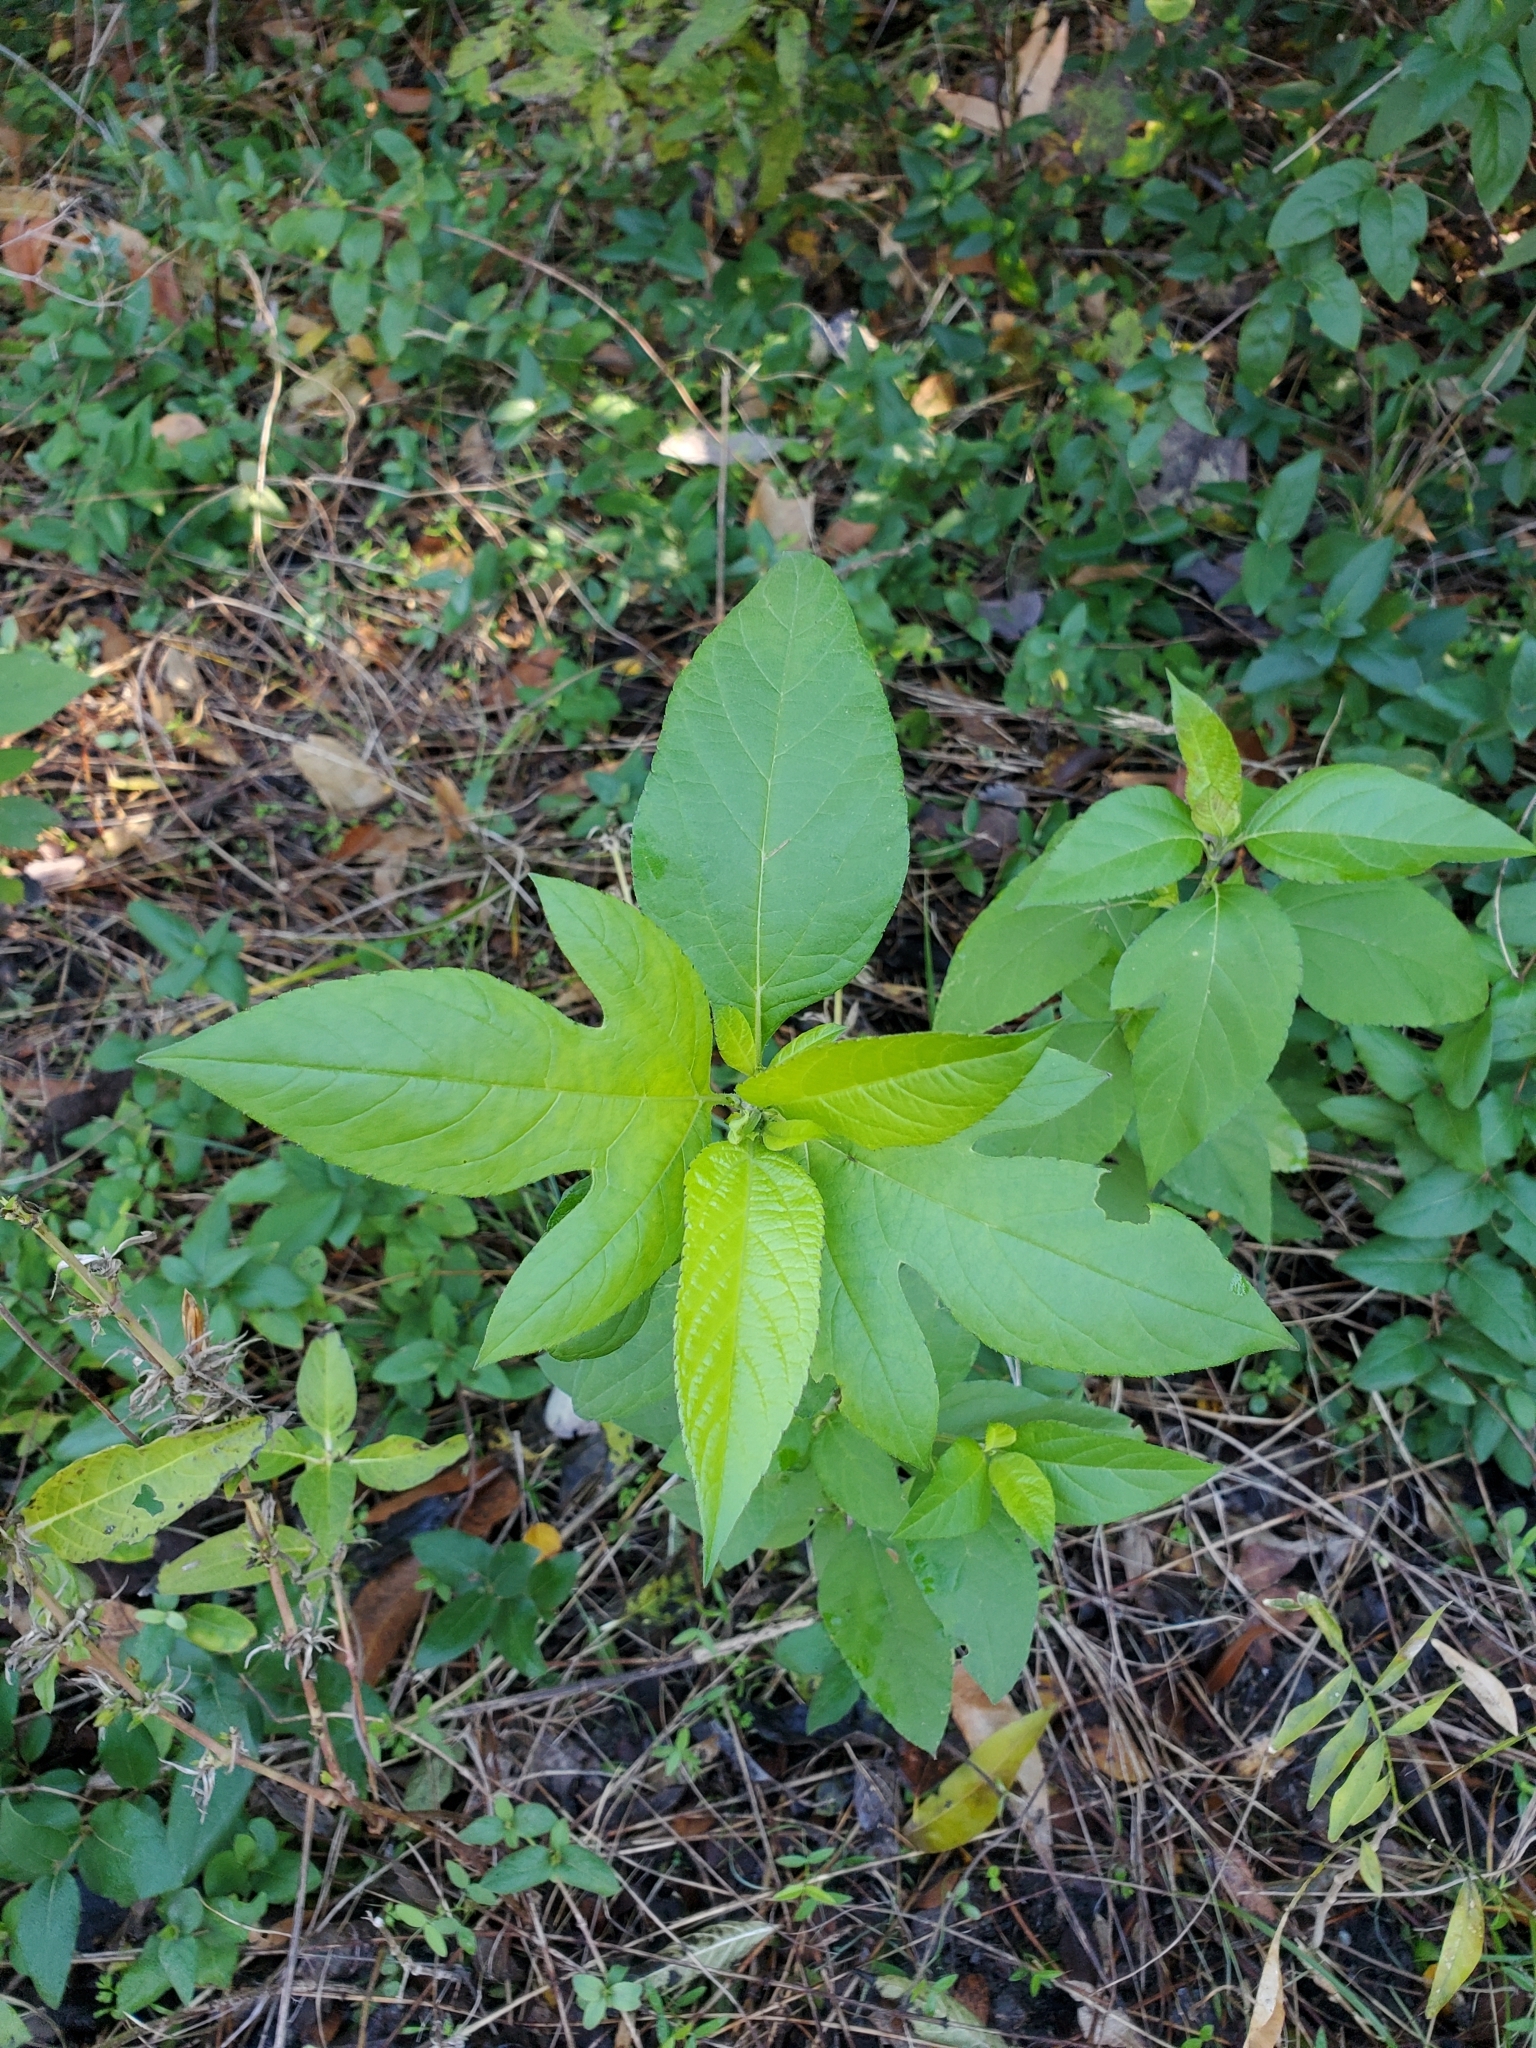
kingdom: Plantae
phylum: Tracheophyta
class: Magnoliopsida
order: Asterales
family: Asteraceae
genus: Ambrosia
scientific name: Ambrosia trifida
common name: Giant ragweed
